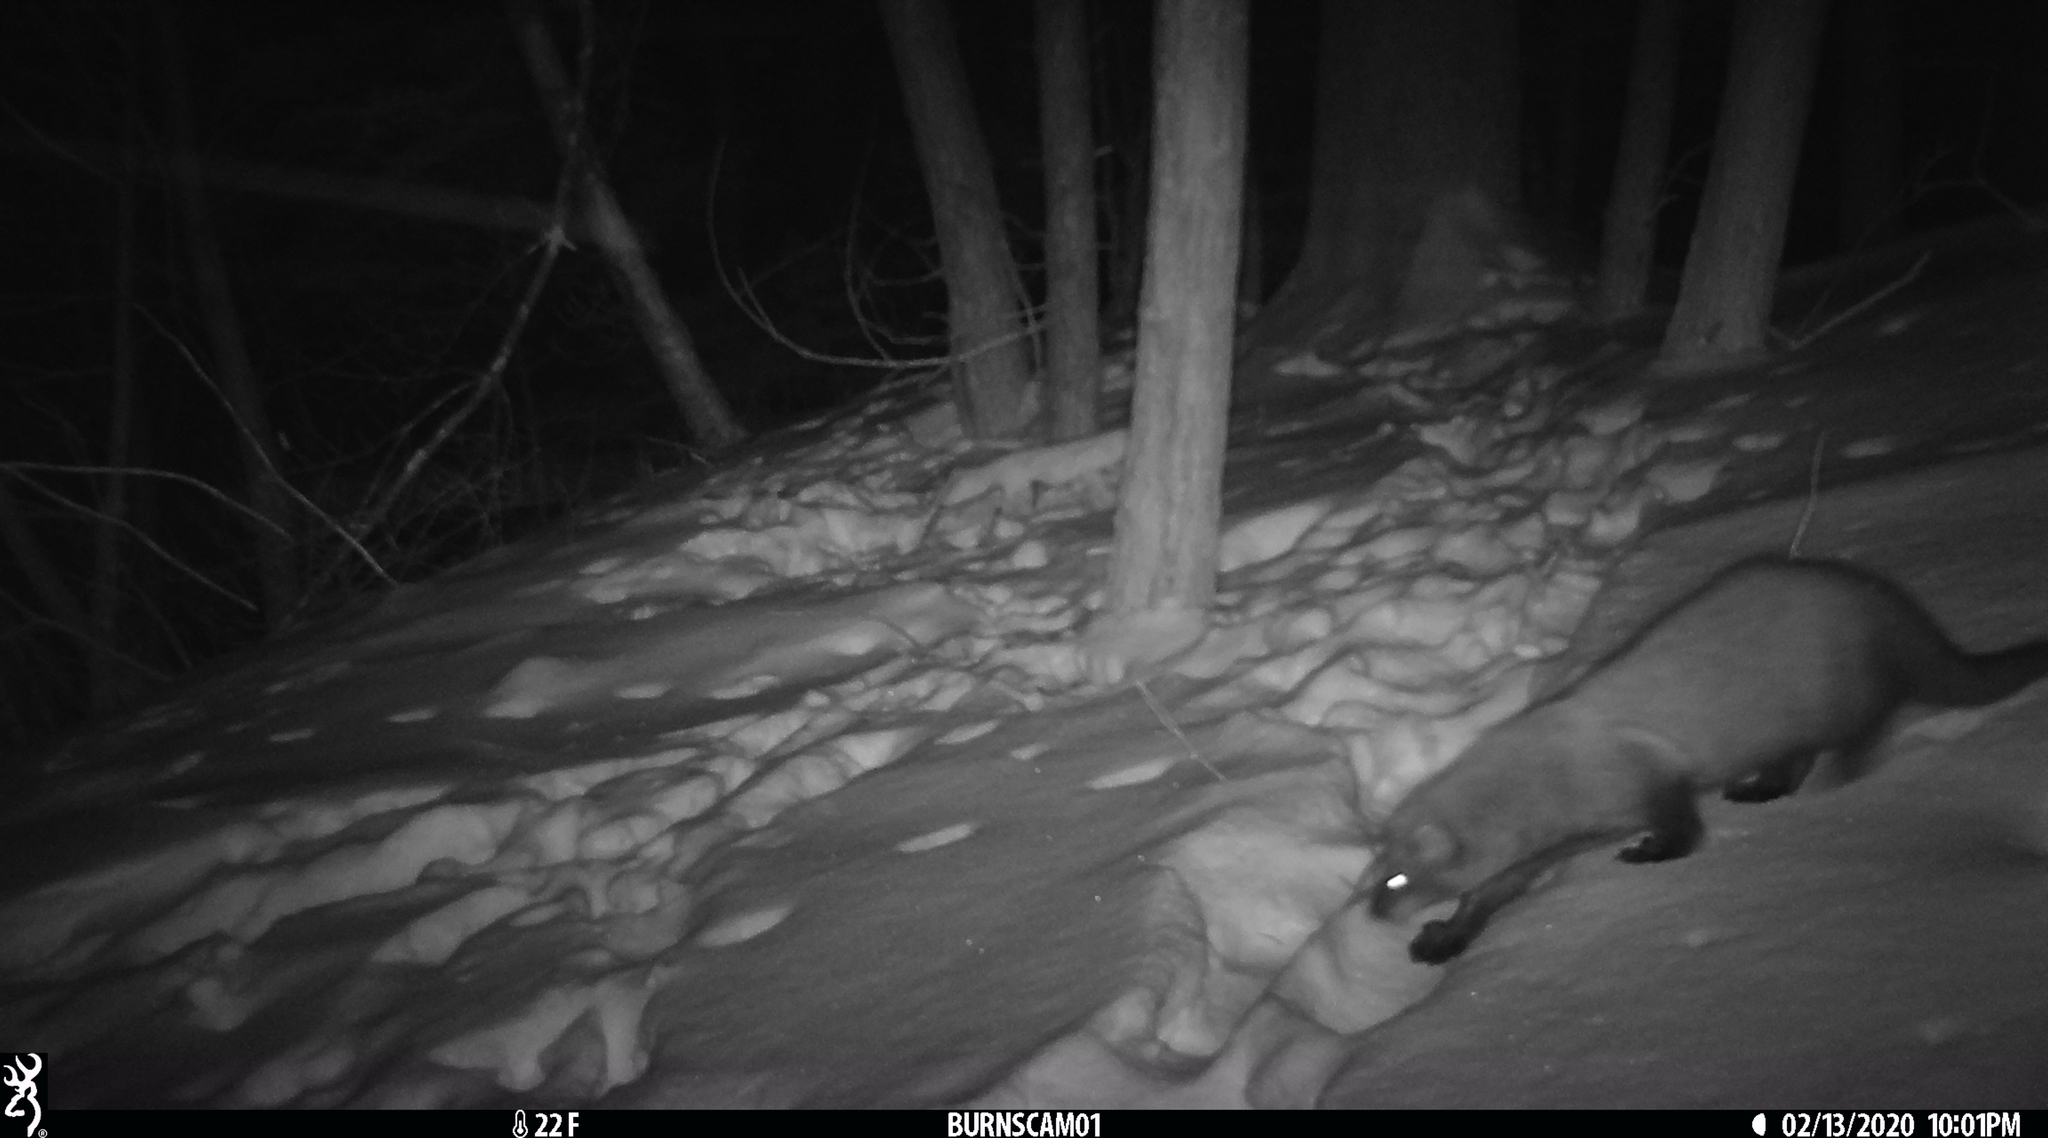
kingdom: Animalia
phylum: Chordata
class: Mammalia
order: Carnivora
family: Mustelidae
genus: Pekania
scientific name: Pekania pennanti
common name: Fisher
